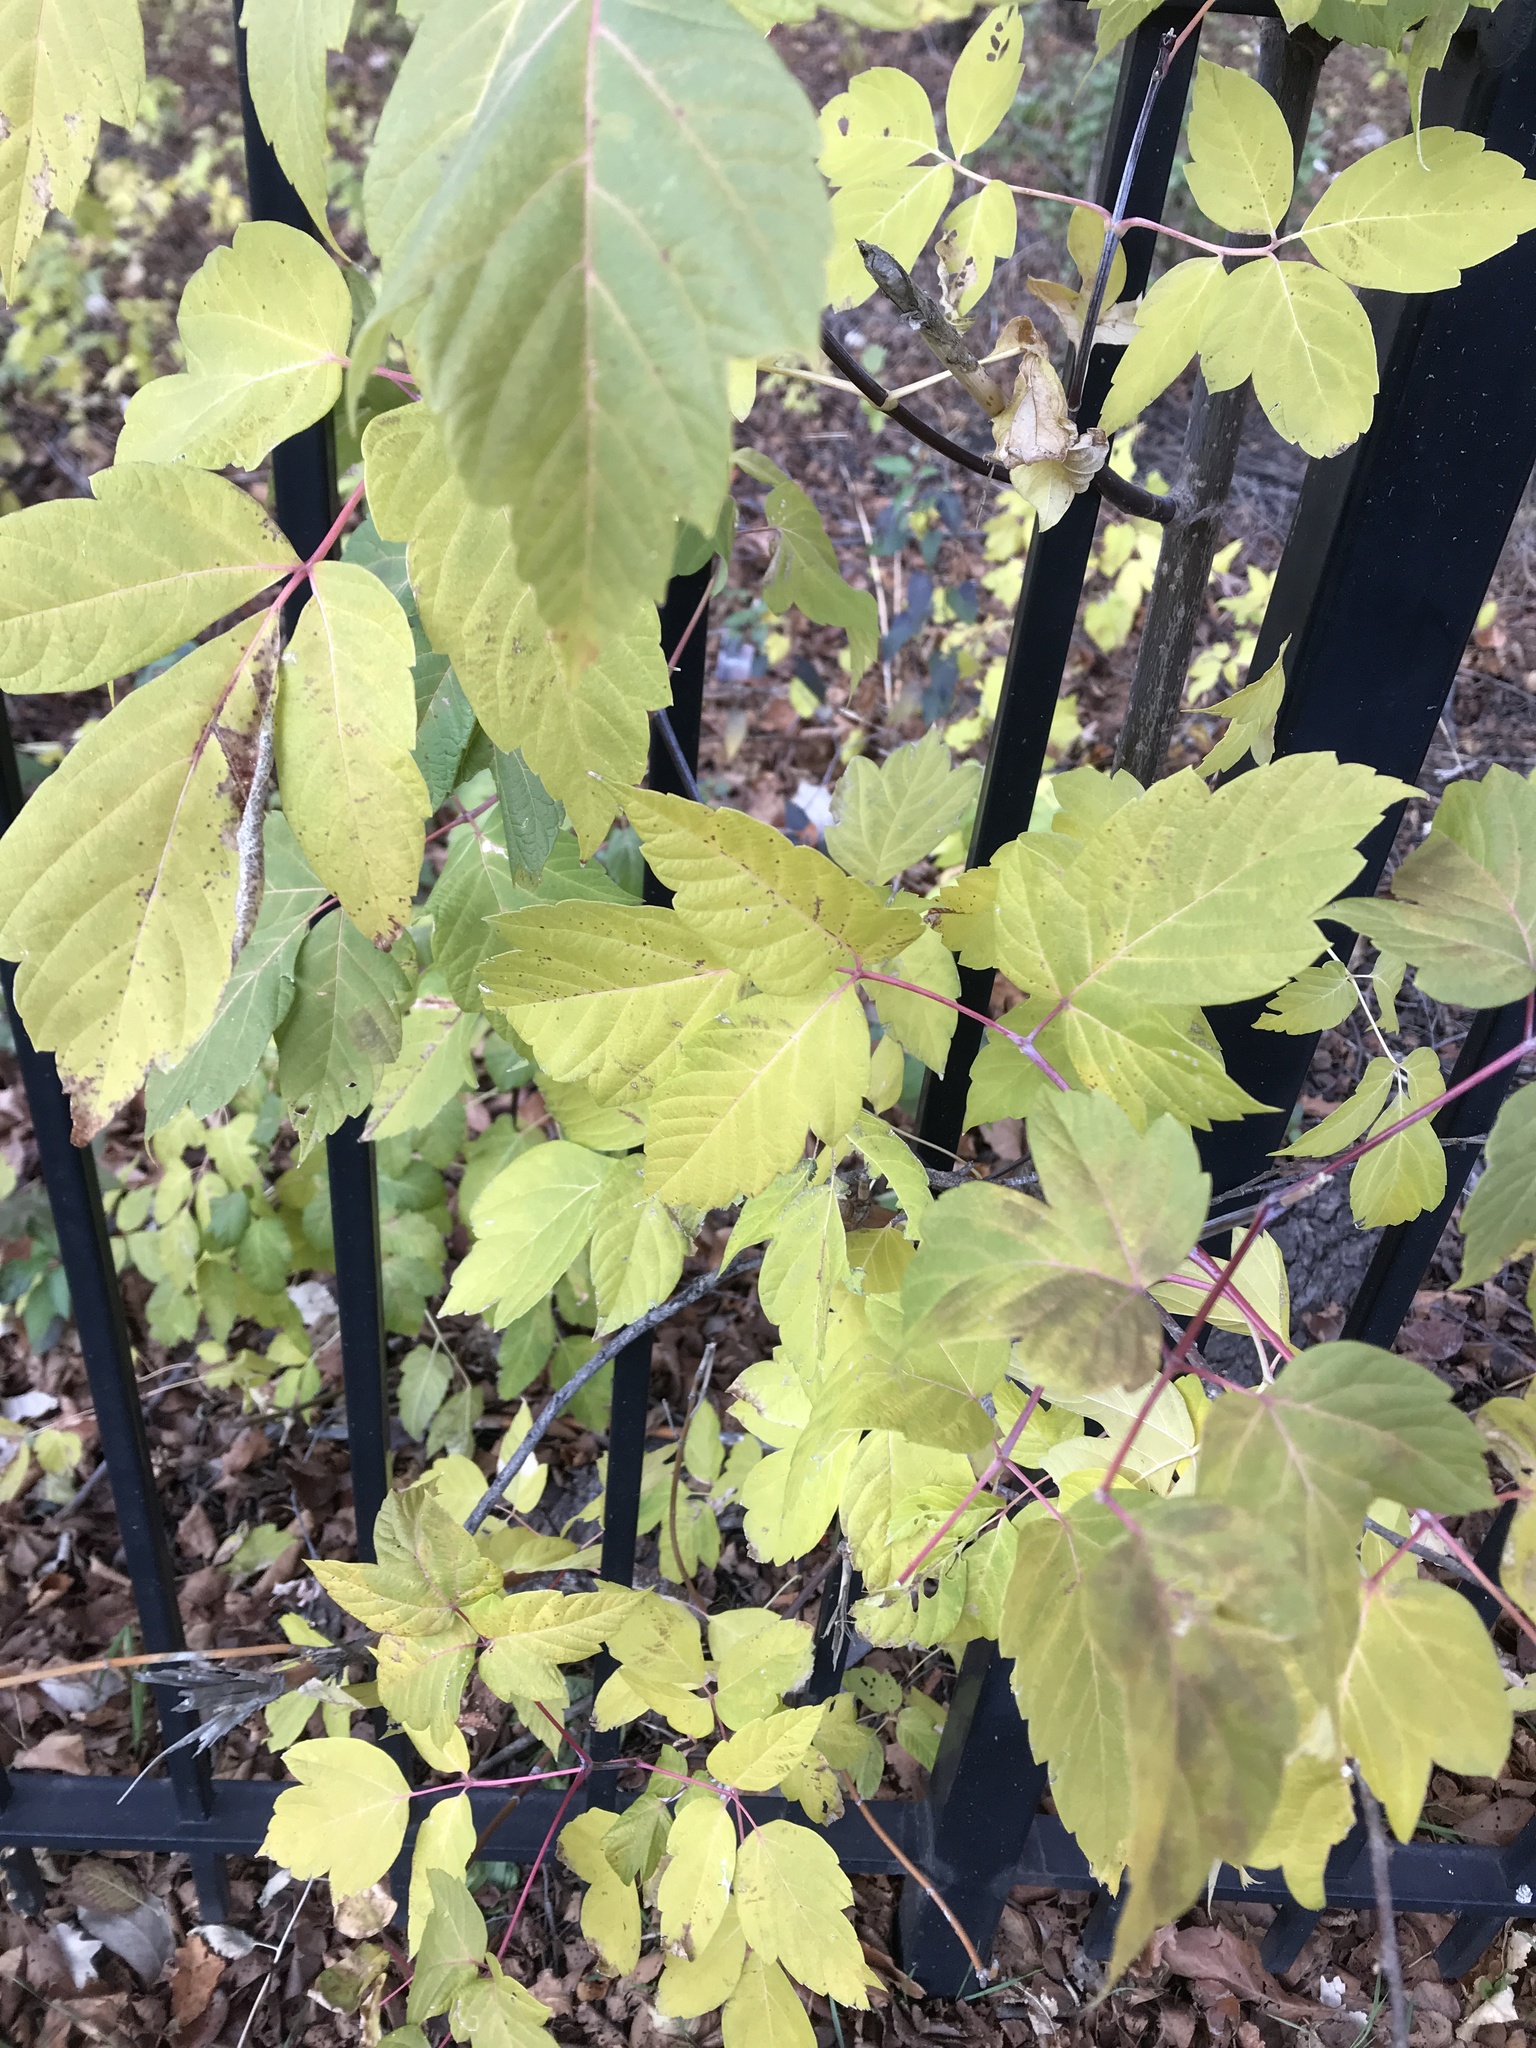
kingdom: Plantae
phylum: Tracheophyta
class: Magnoliopsida
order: Sapindales
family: Sapindaceae
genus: Acer
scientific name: Acer negundo
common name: Ashleaf maple
